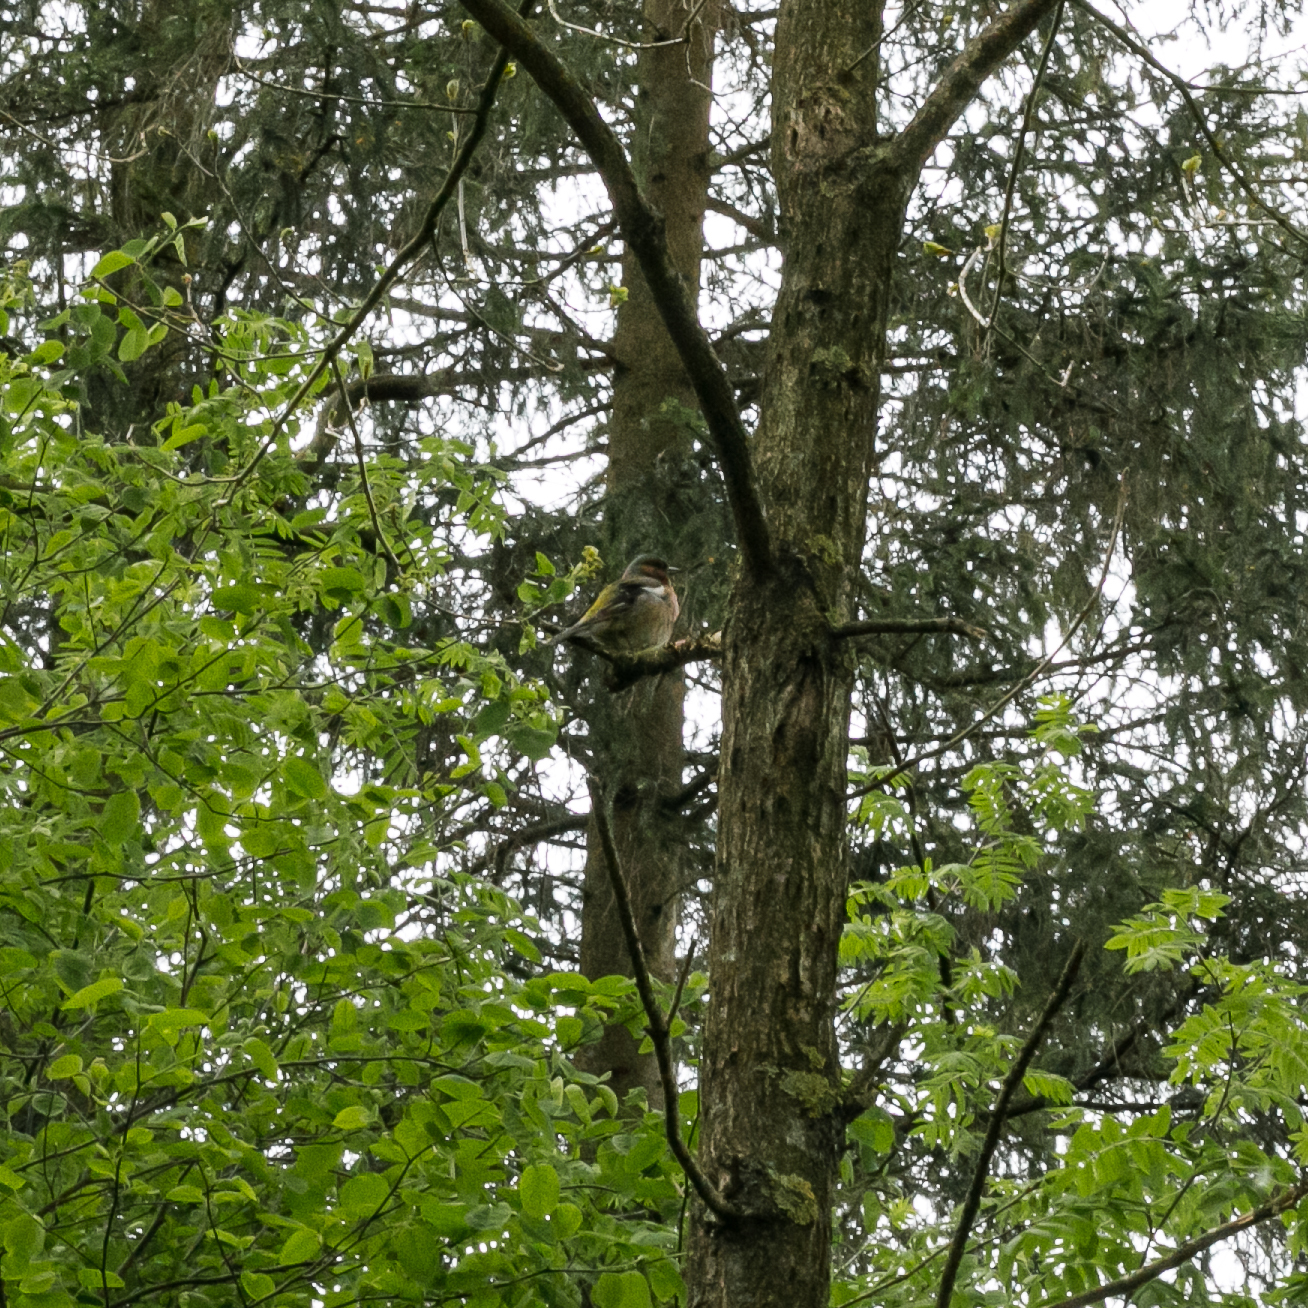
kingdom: Animalia
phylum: Chordata
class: Aves
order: Passeriformes
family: Fringillidae
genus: Fringilla
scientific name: Fringilla coelebs
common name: Common chaffinch
